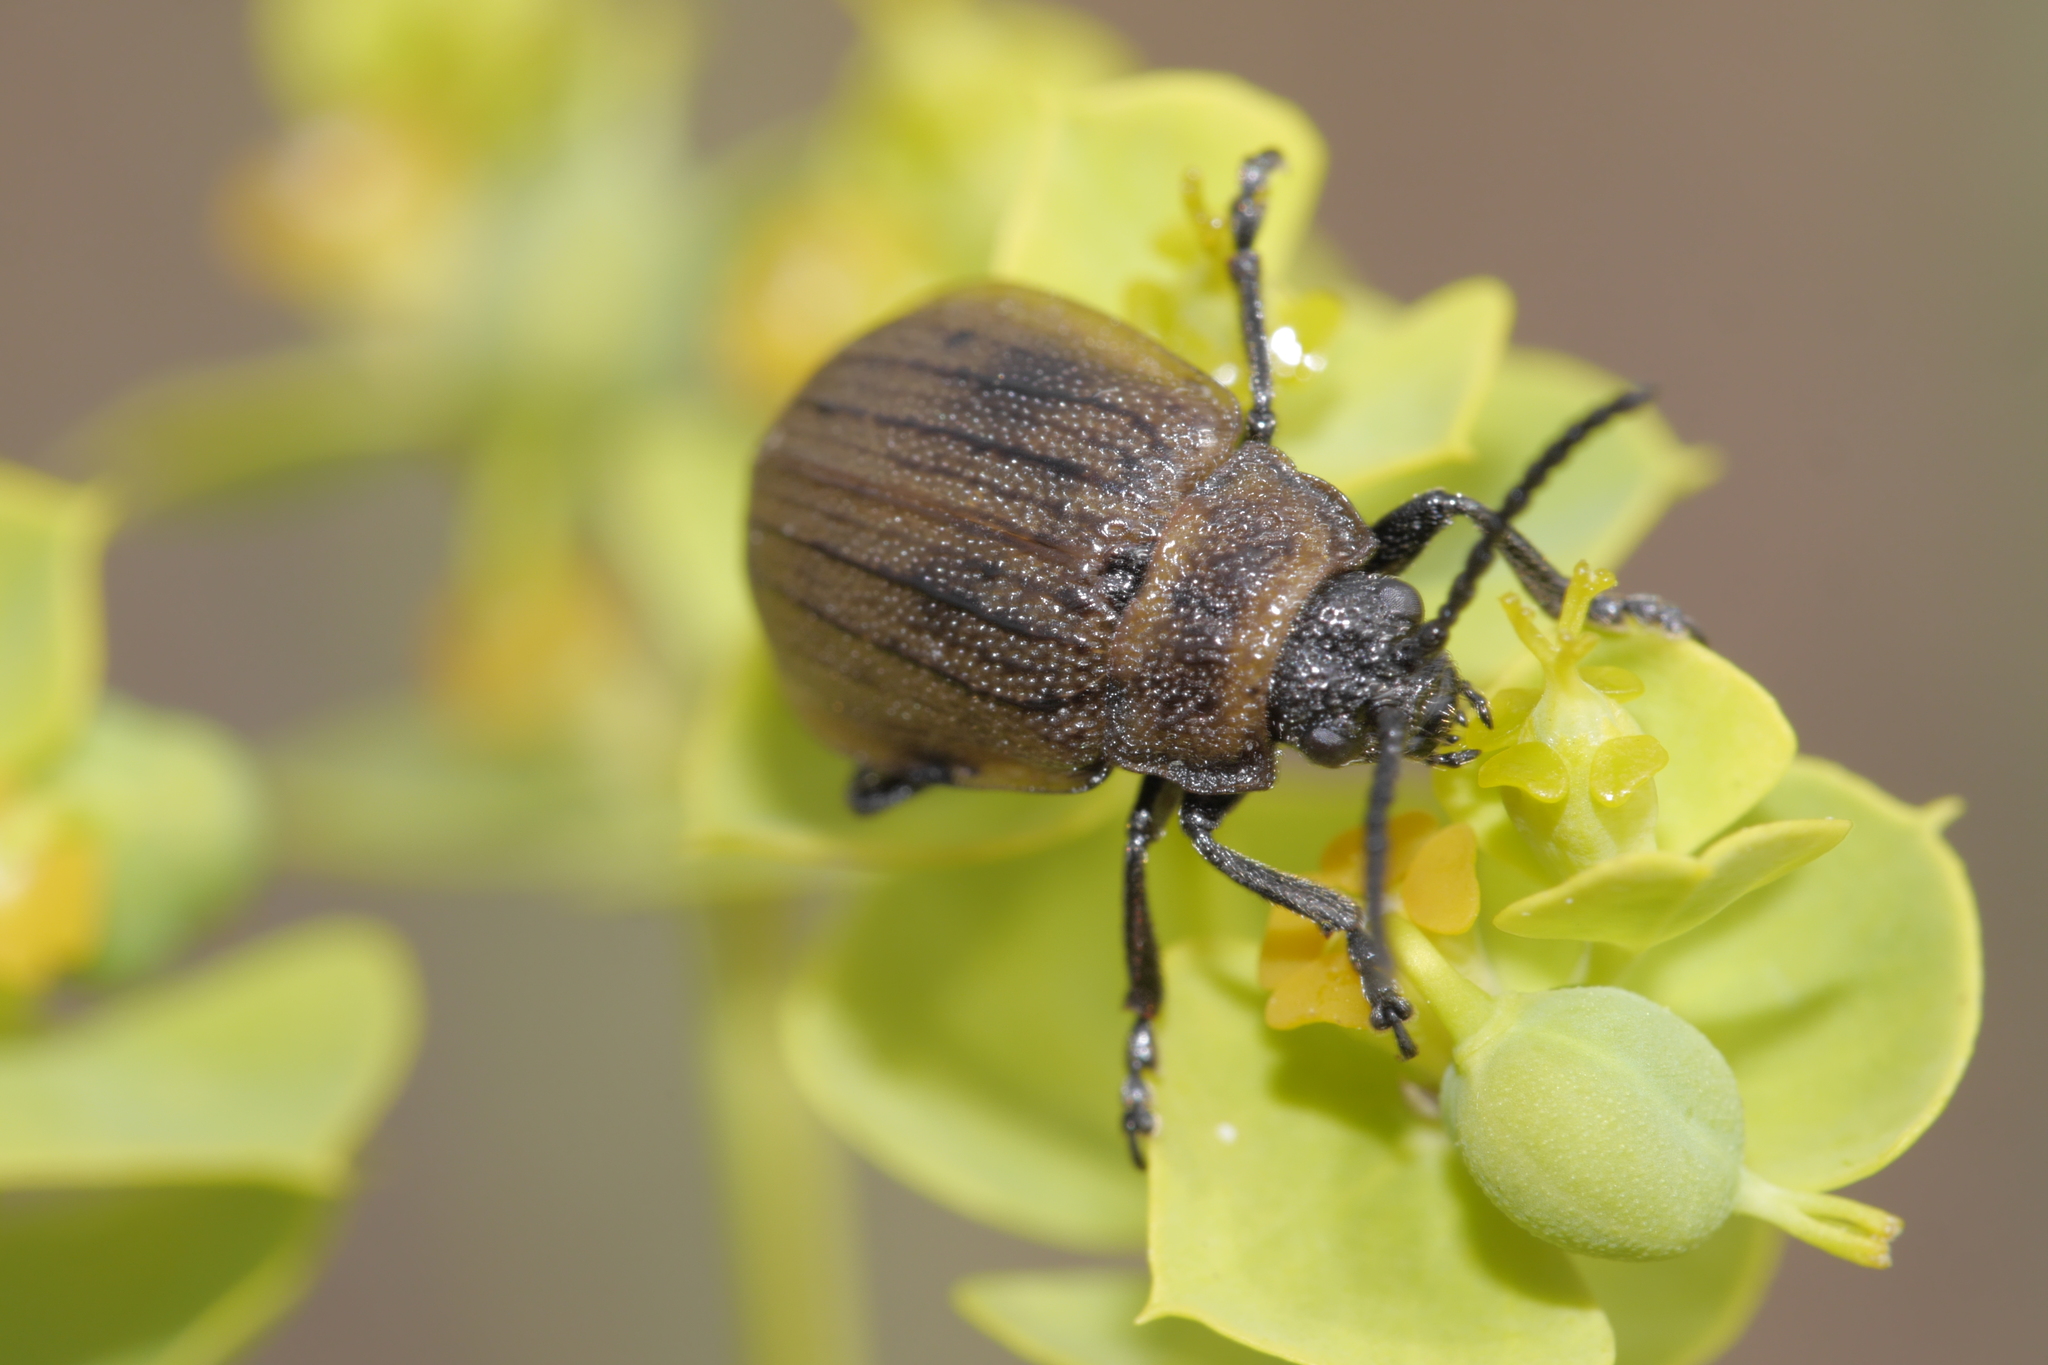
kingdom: Animalia
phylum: Arthropoda
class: Insecta
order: Coleoptera
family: Chrysomelidae
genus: Galeruca
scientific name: Galeruca pomonae
